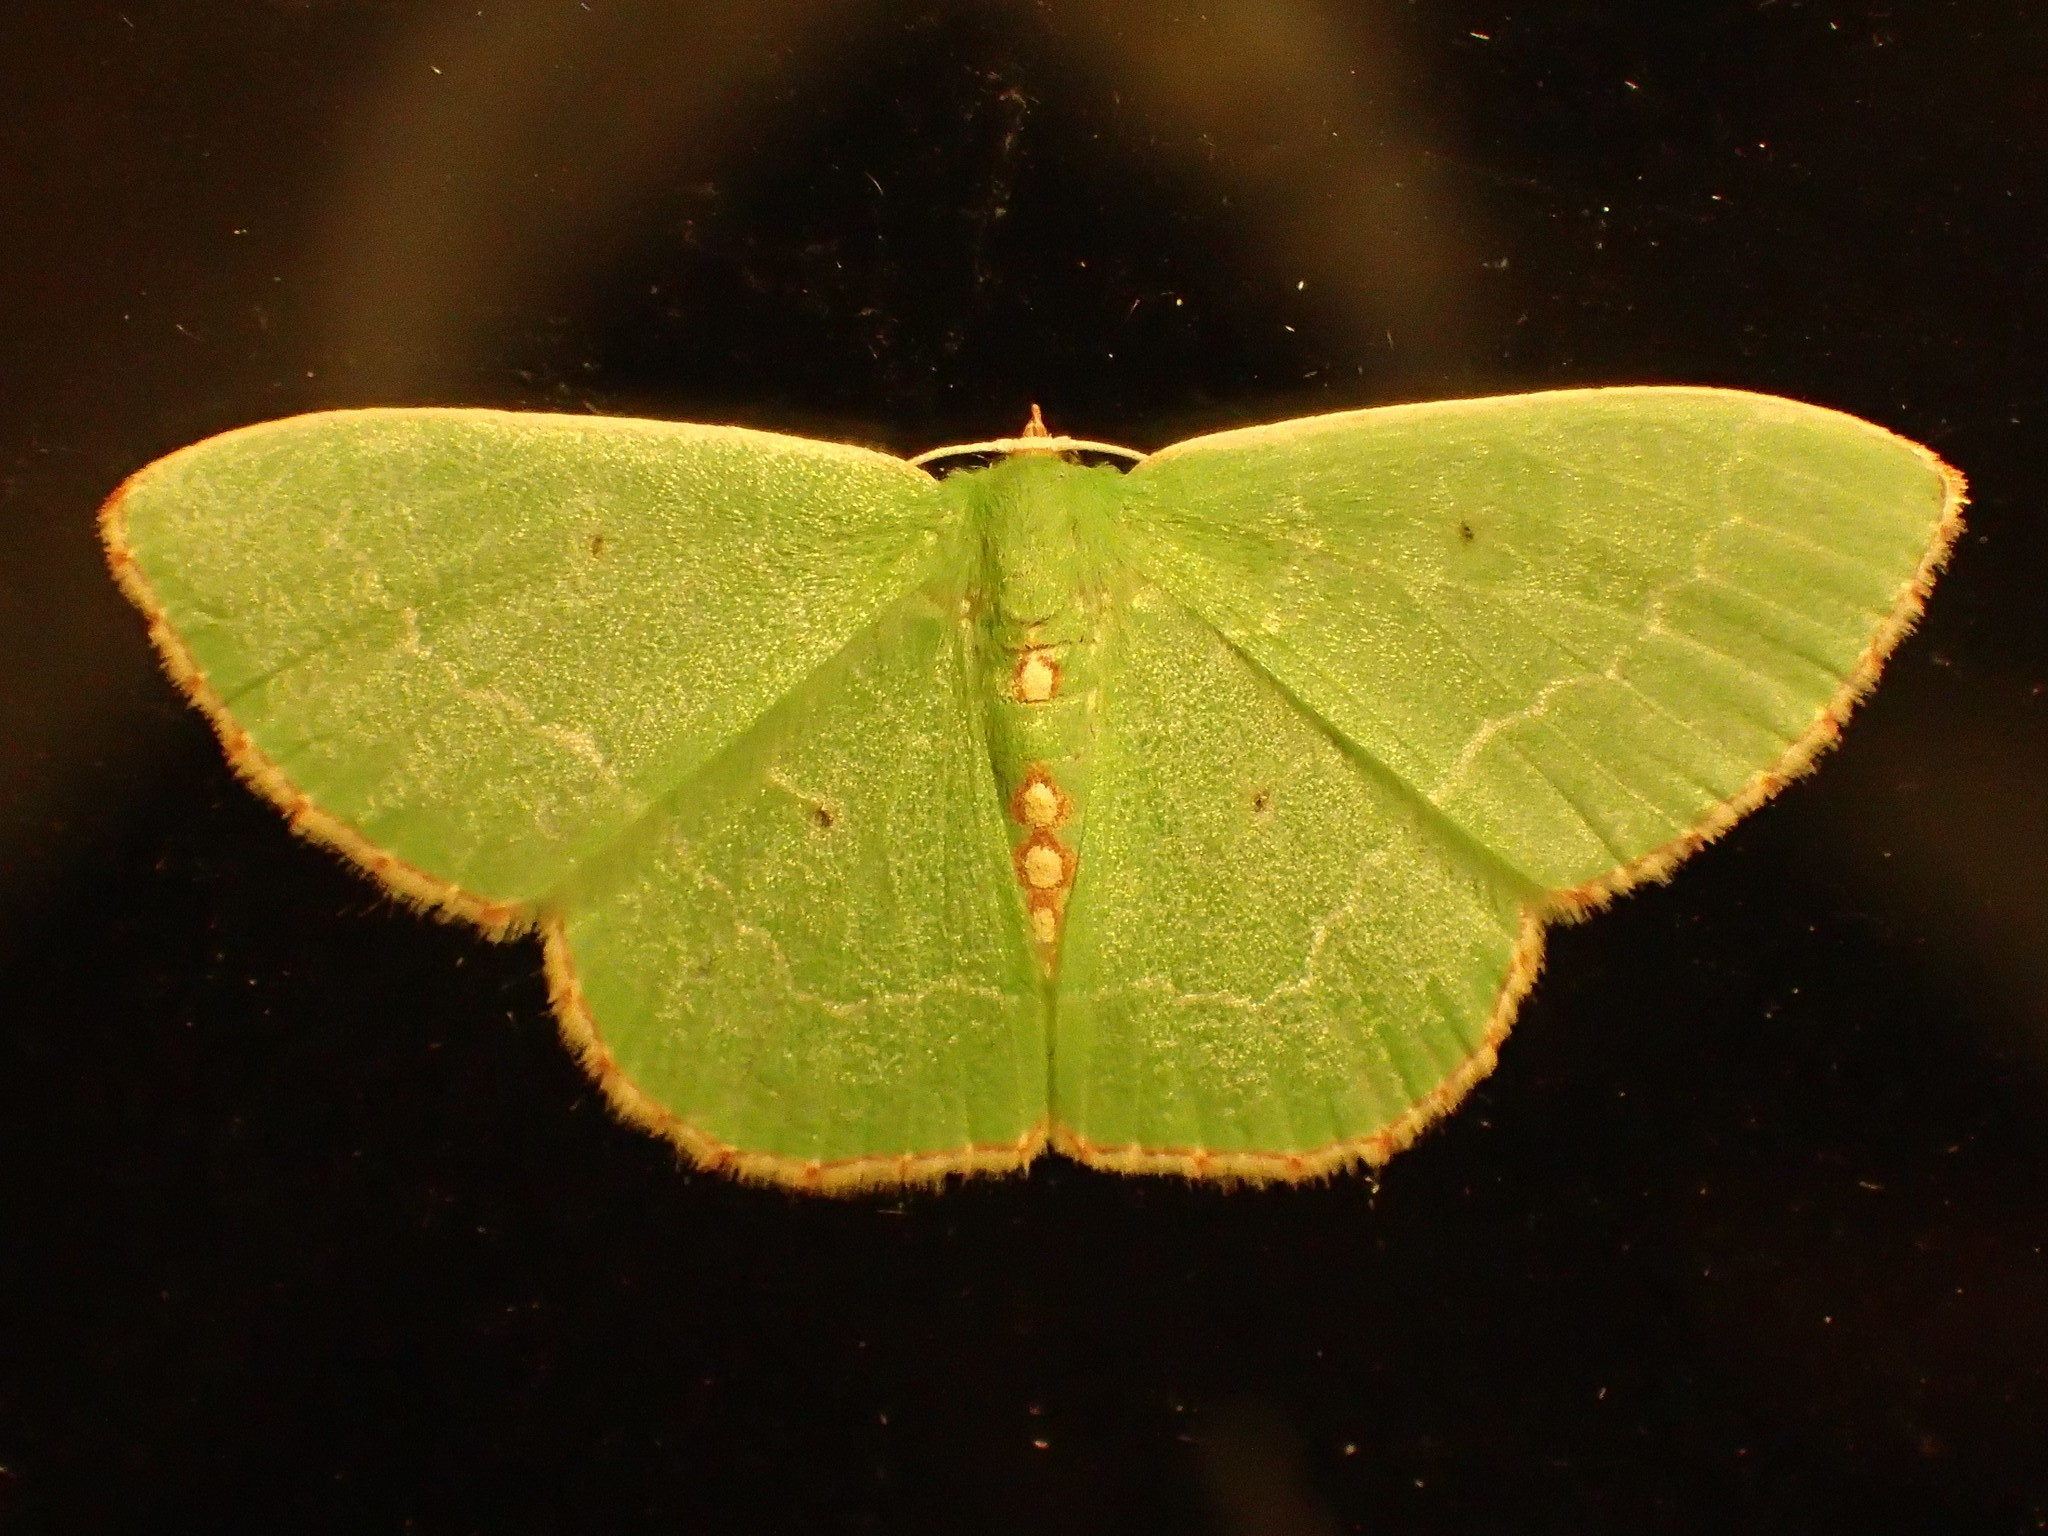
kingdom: Animalia
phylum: Arthropoda
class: Insecta
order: Lepidoptera
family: Geometridae
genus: Nemoria
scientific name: Nemoria lixaria
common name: Red-bordered emerald
